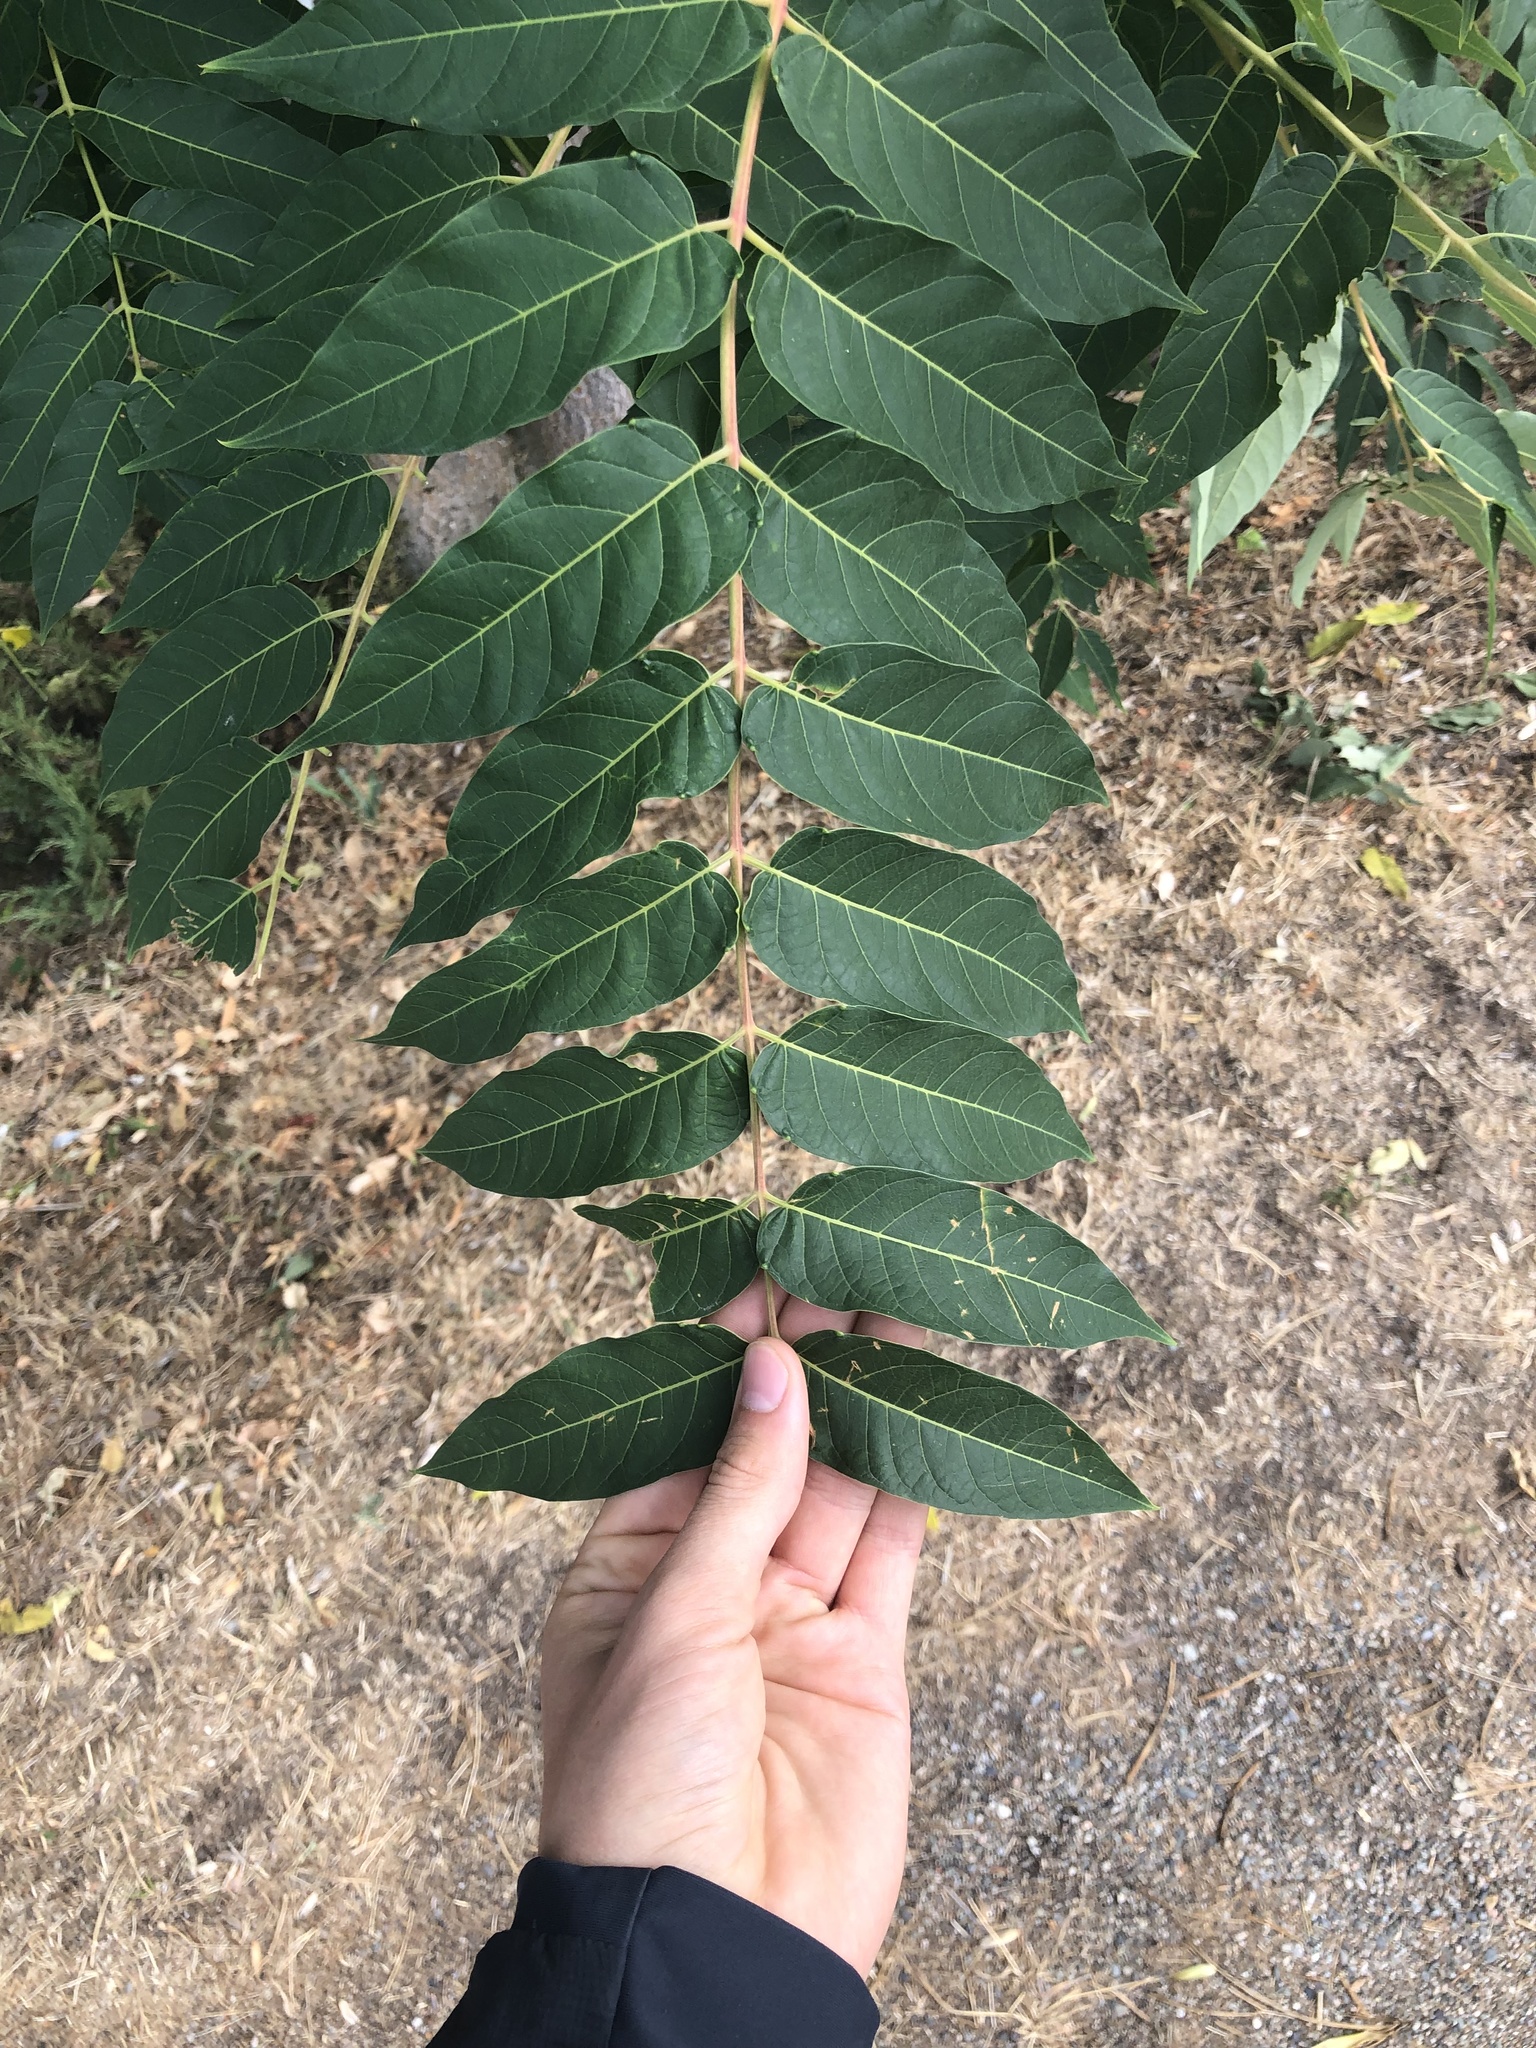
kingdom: Plantae
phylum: Tracheophyta
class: Magnoliopsida
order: Sapindales
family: Simaroubaceae
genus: Ailanthus
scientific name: Ailanthus altissima
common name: Tree-of-heaven
